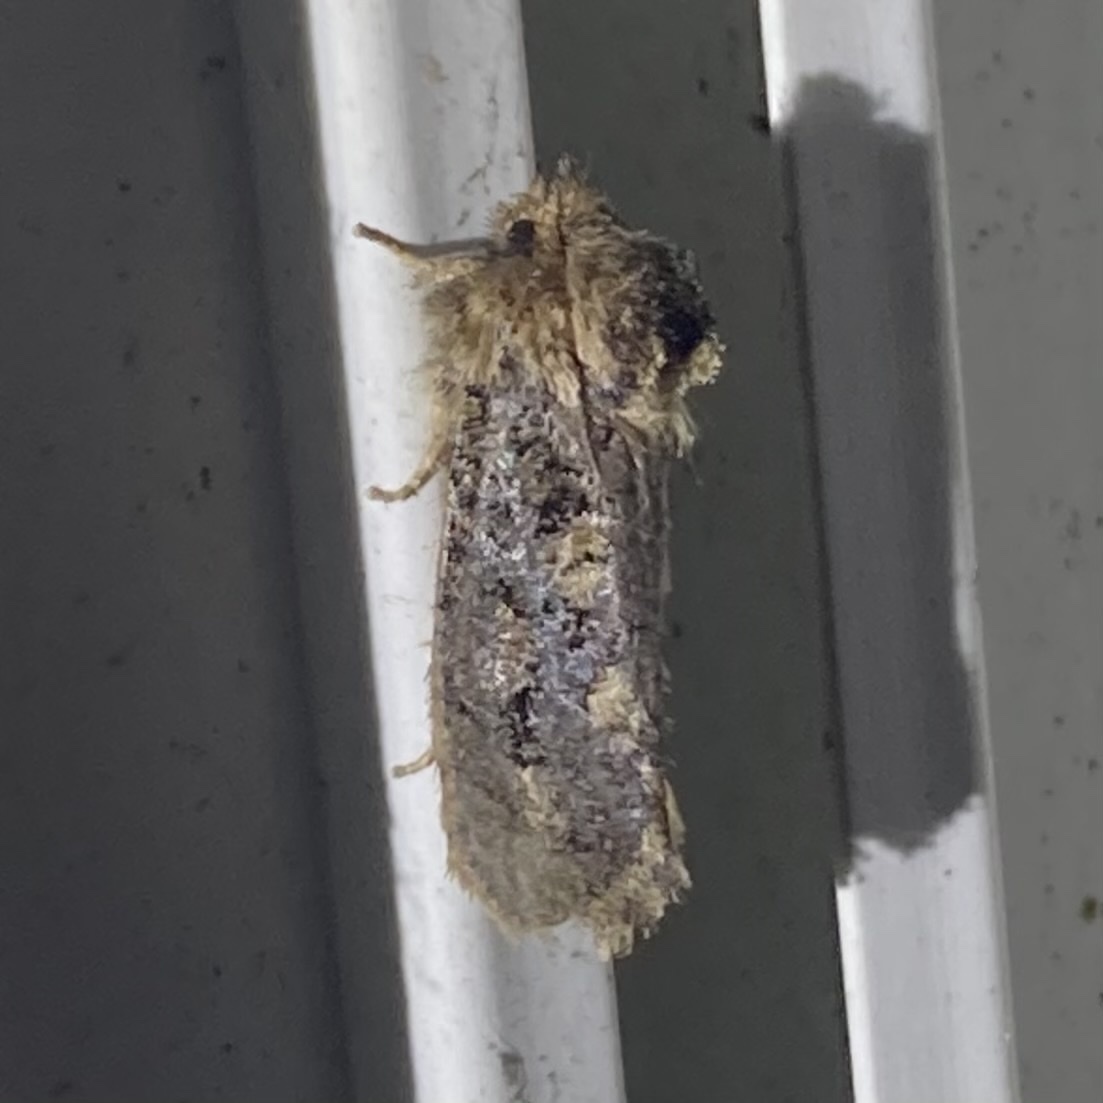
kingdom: Animalia
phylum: Arthropoda
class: Insecta
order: Lepidoptera
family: Tineidae
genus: Acrolophus
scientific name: Acrolophus arcanella
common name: Arcane grass tubeworm moth
